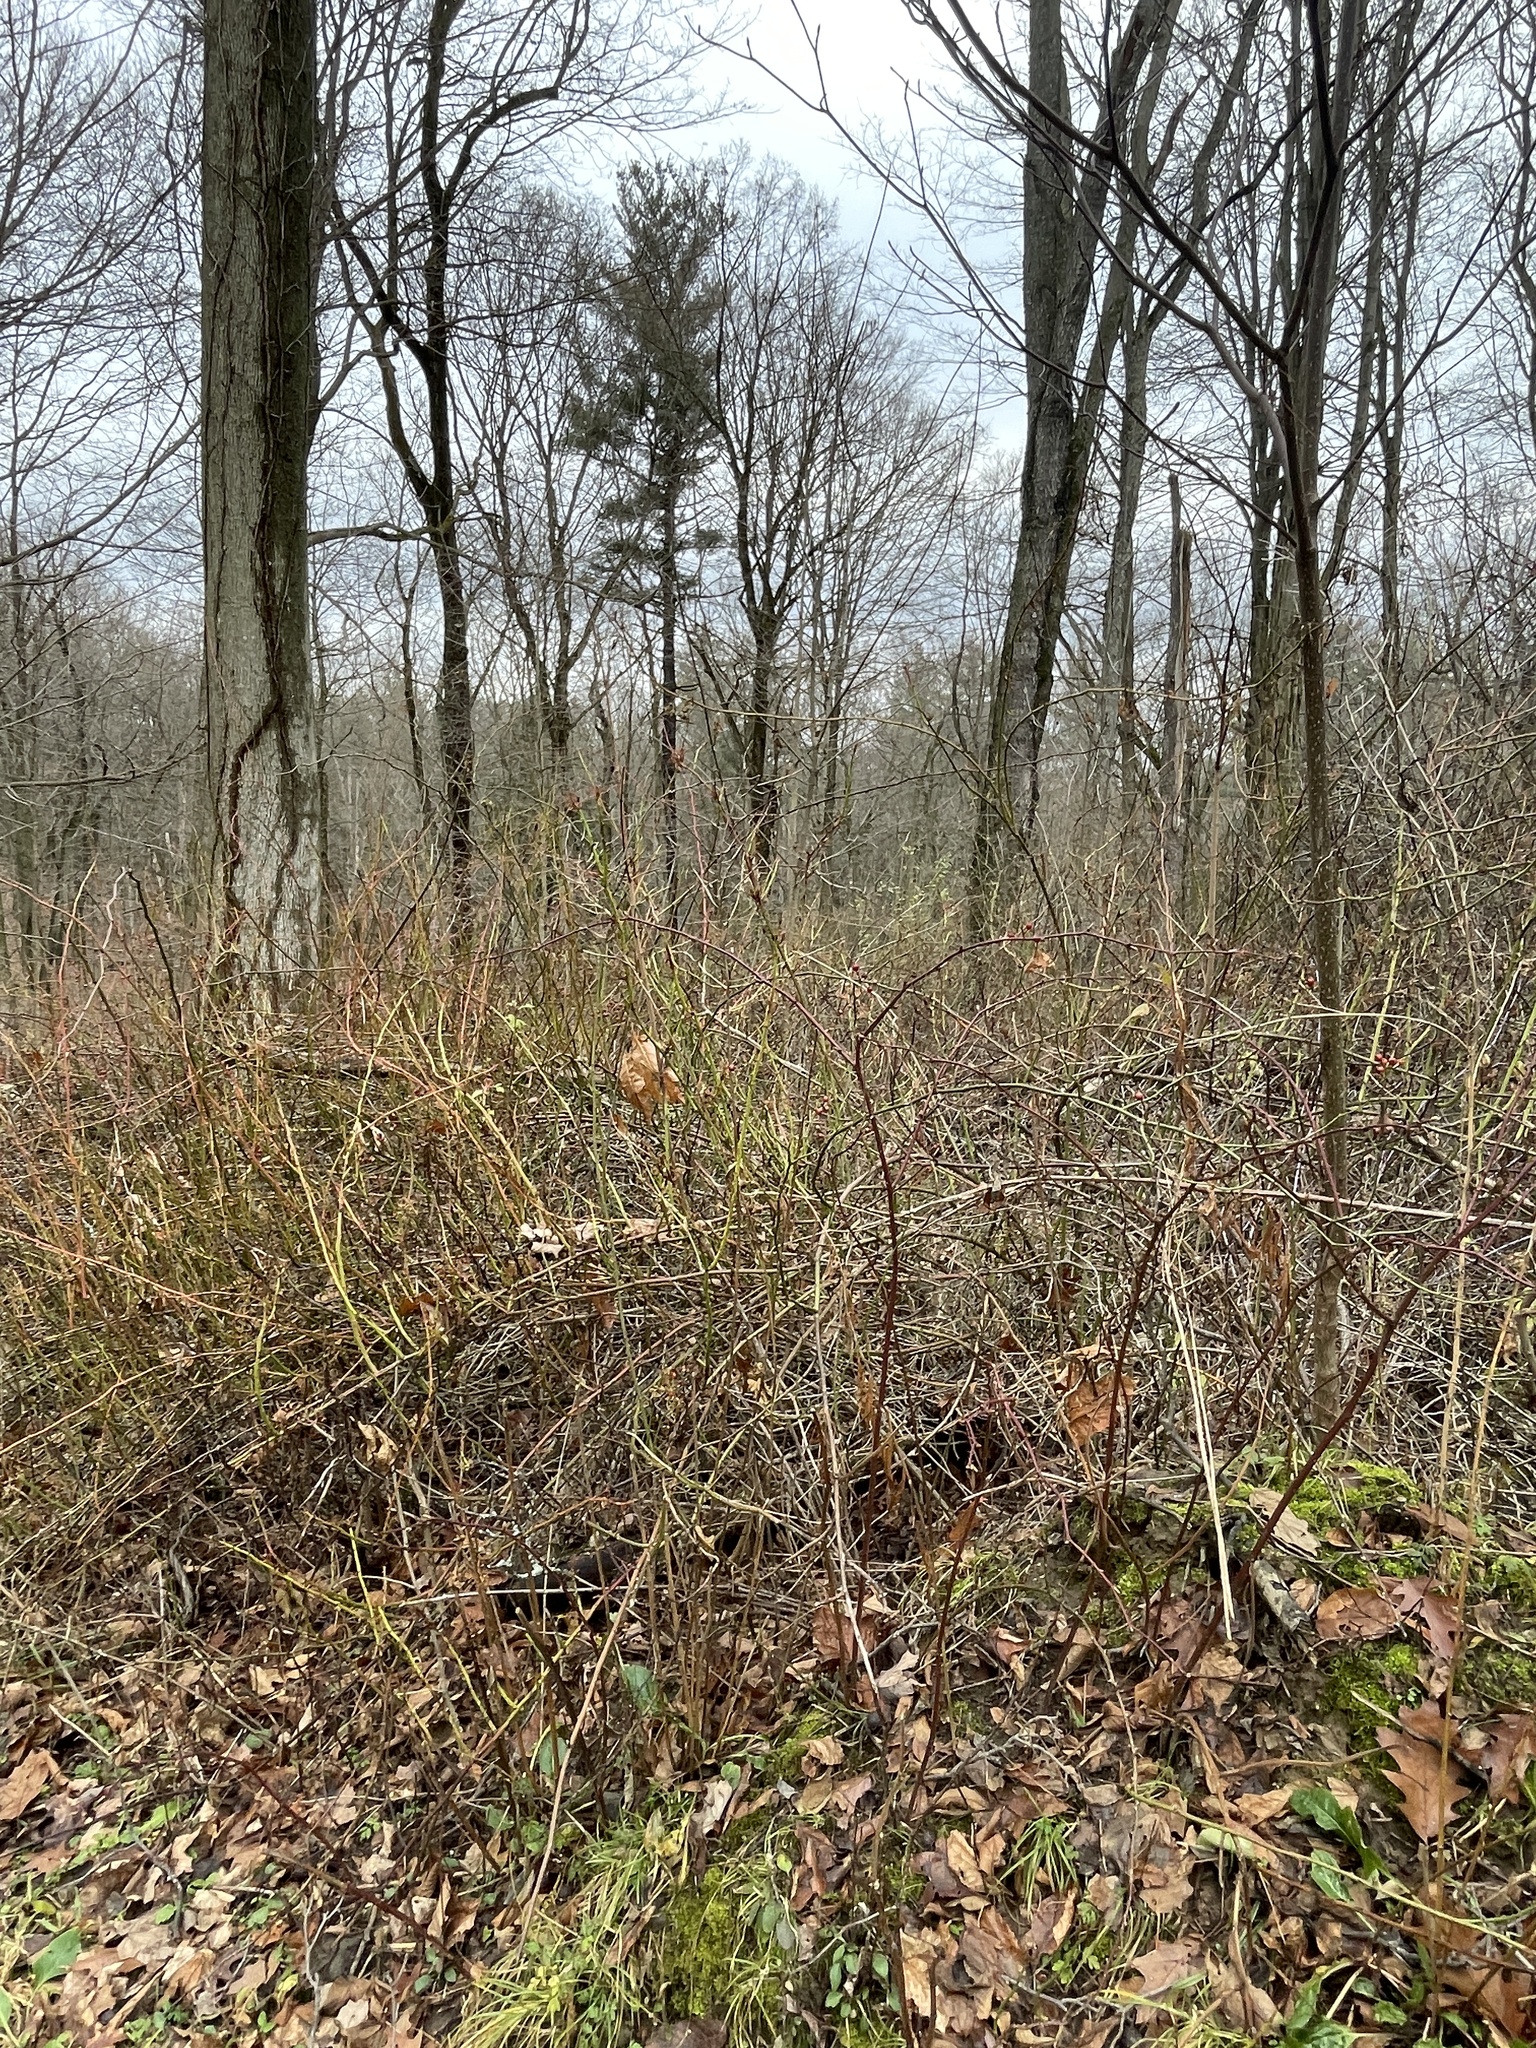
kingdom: Plantae
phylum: Tracheophyta
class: Magnoliopsida
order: Rosales
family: Rosaceae
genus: Rosa
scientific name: Rosa multiflora
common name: Multiflora rose
